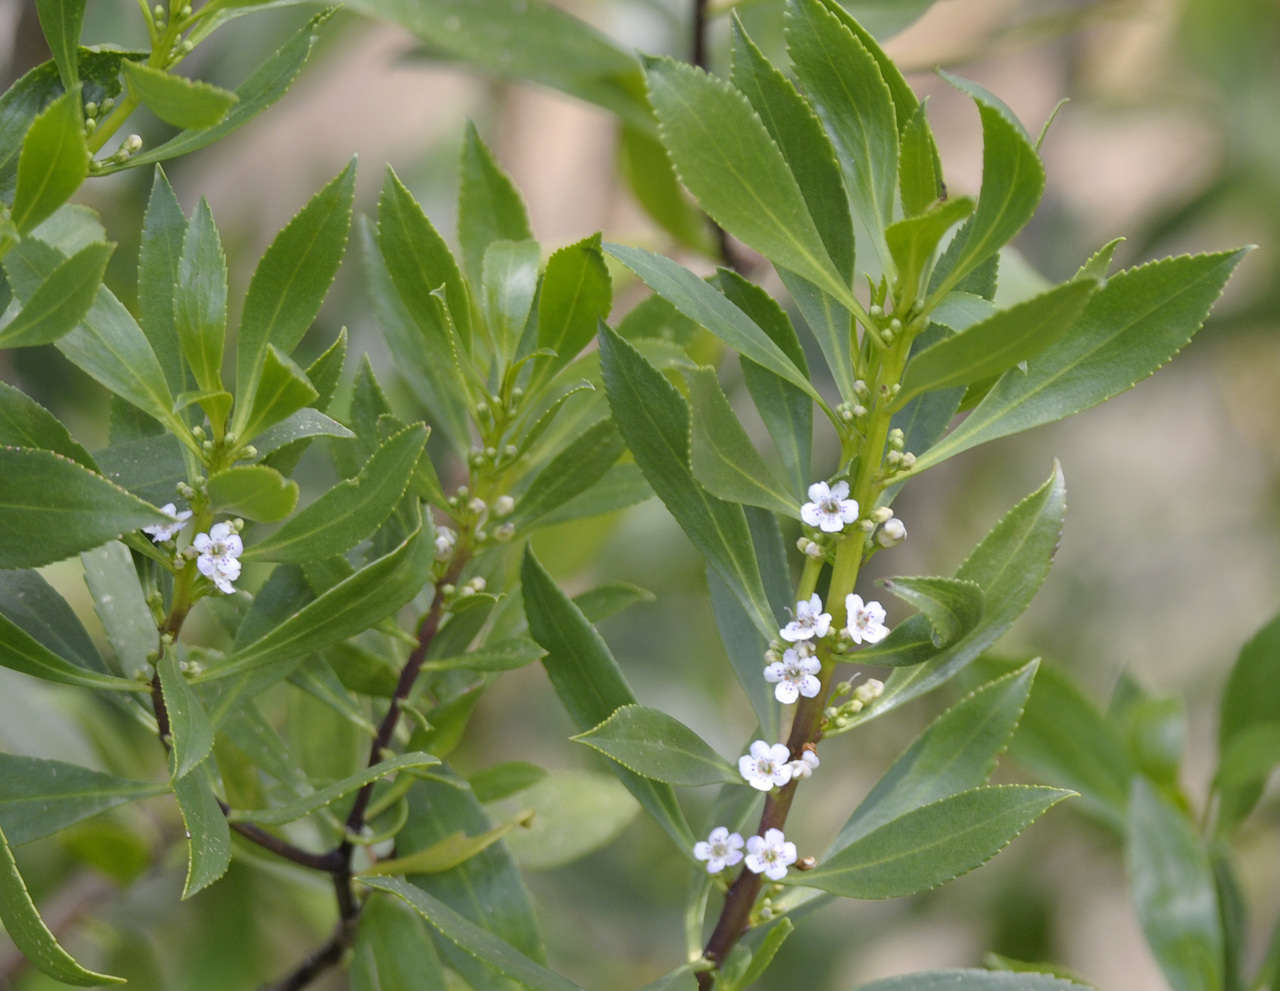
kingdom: Plantae
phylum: Tracheophyta
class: Magnoliopsida
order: Lamiales
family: Scrophulariaceae
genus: Myoporum
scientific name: Myoporum insulare
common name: Common boobialla
